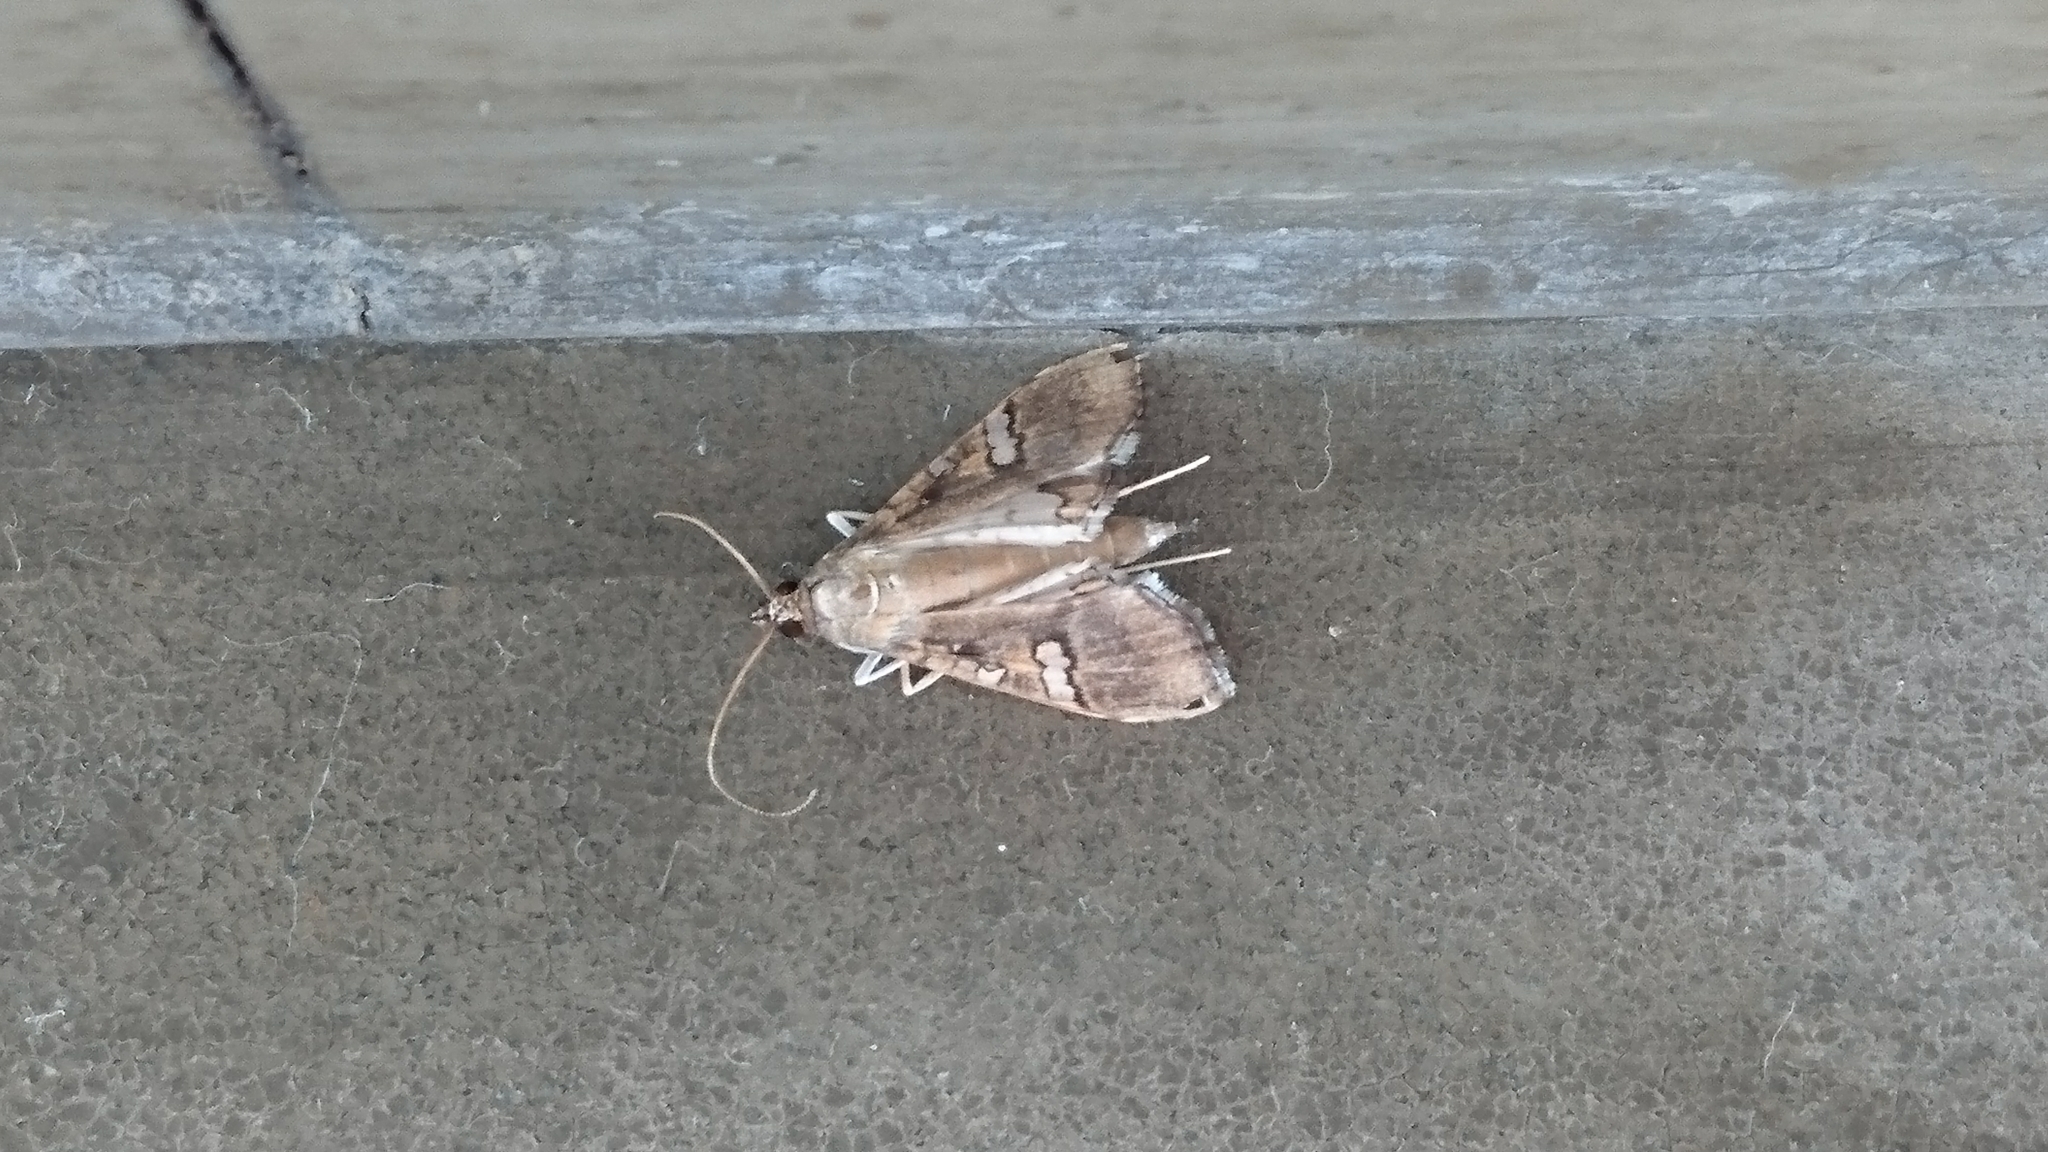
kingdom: Animalia
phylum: Arthropoda
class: Insecta
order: Lepidoptera
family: Crambidae
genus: Maruca
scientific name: Maruca vitrata
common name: Maruca pod borer
